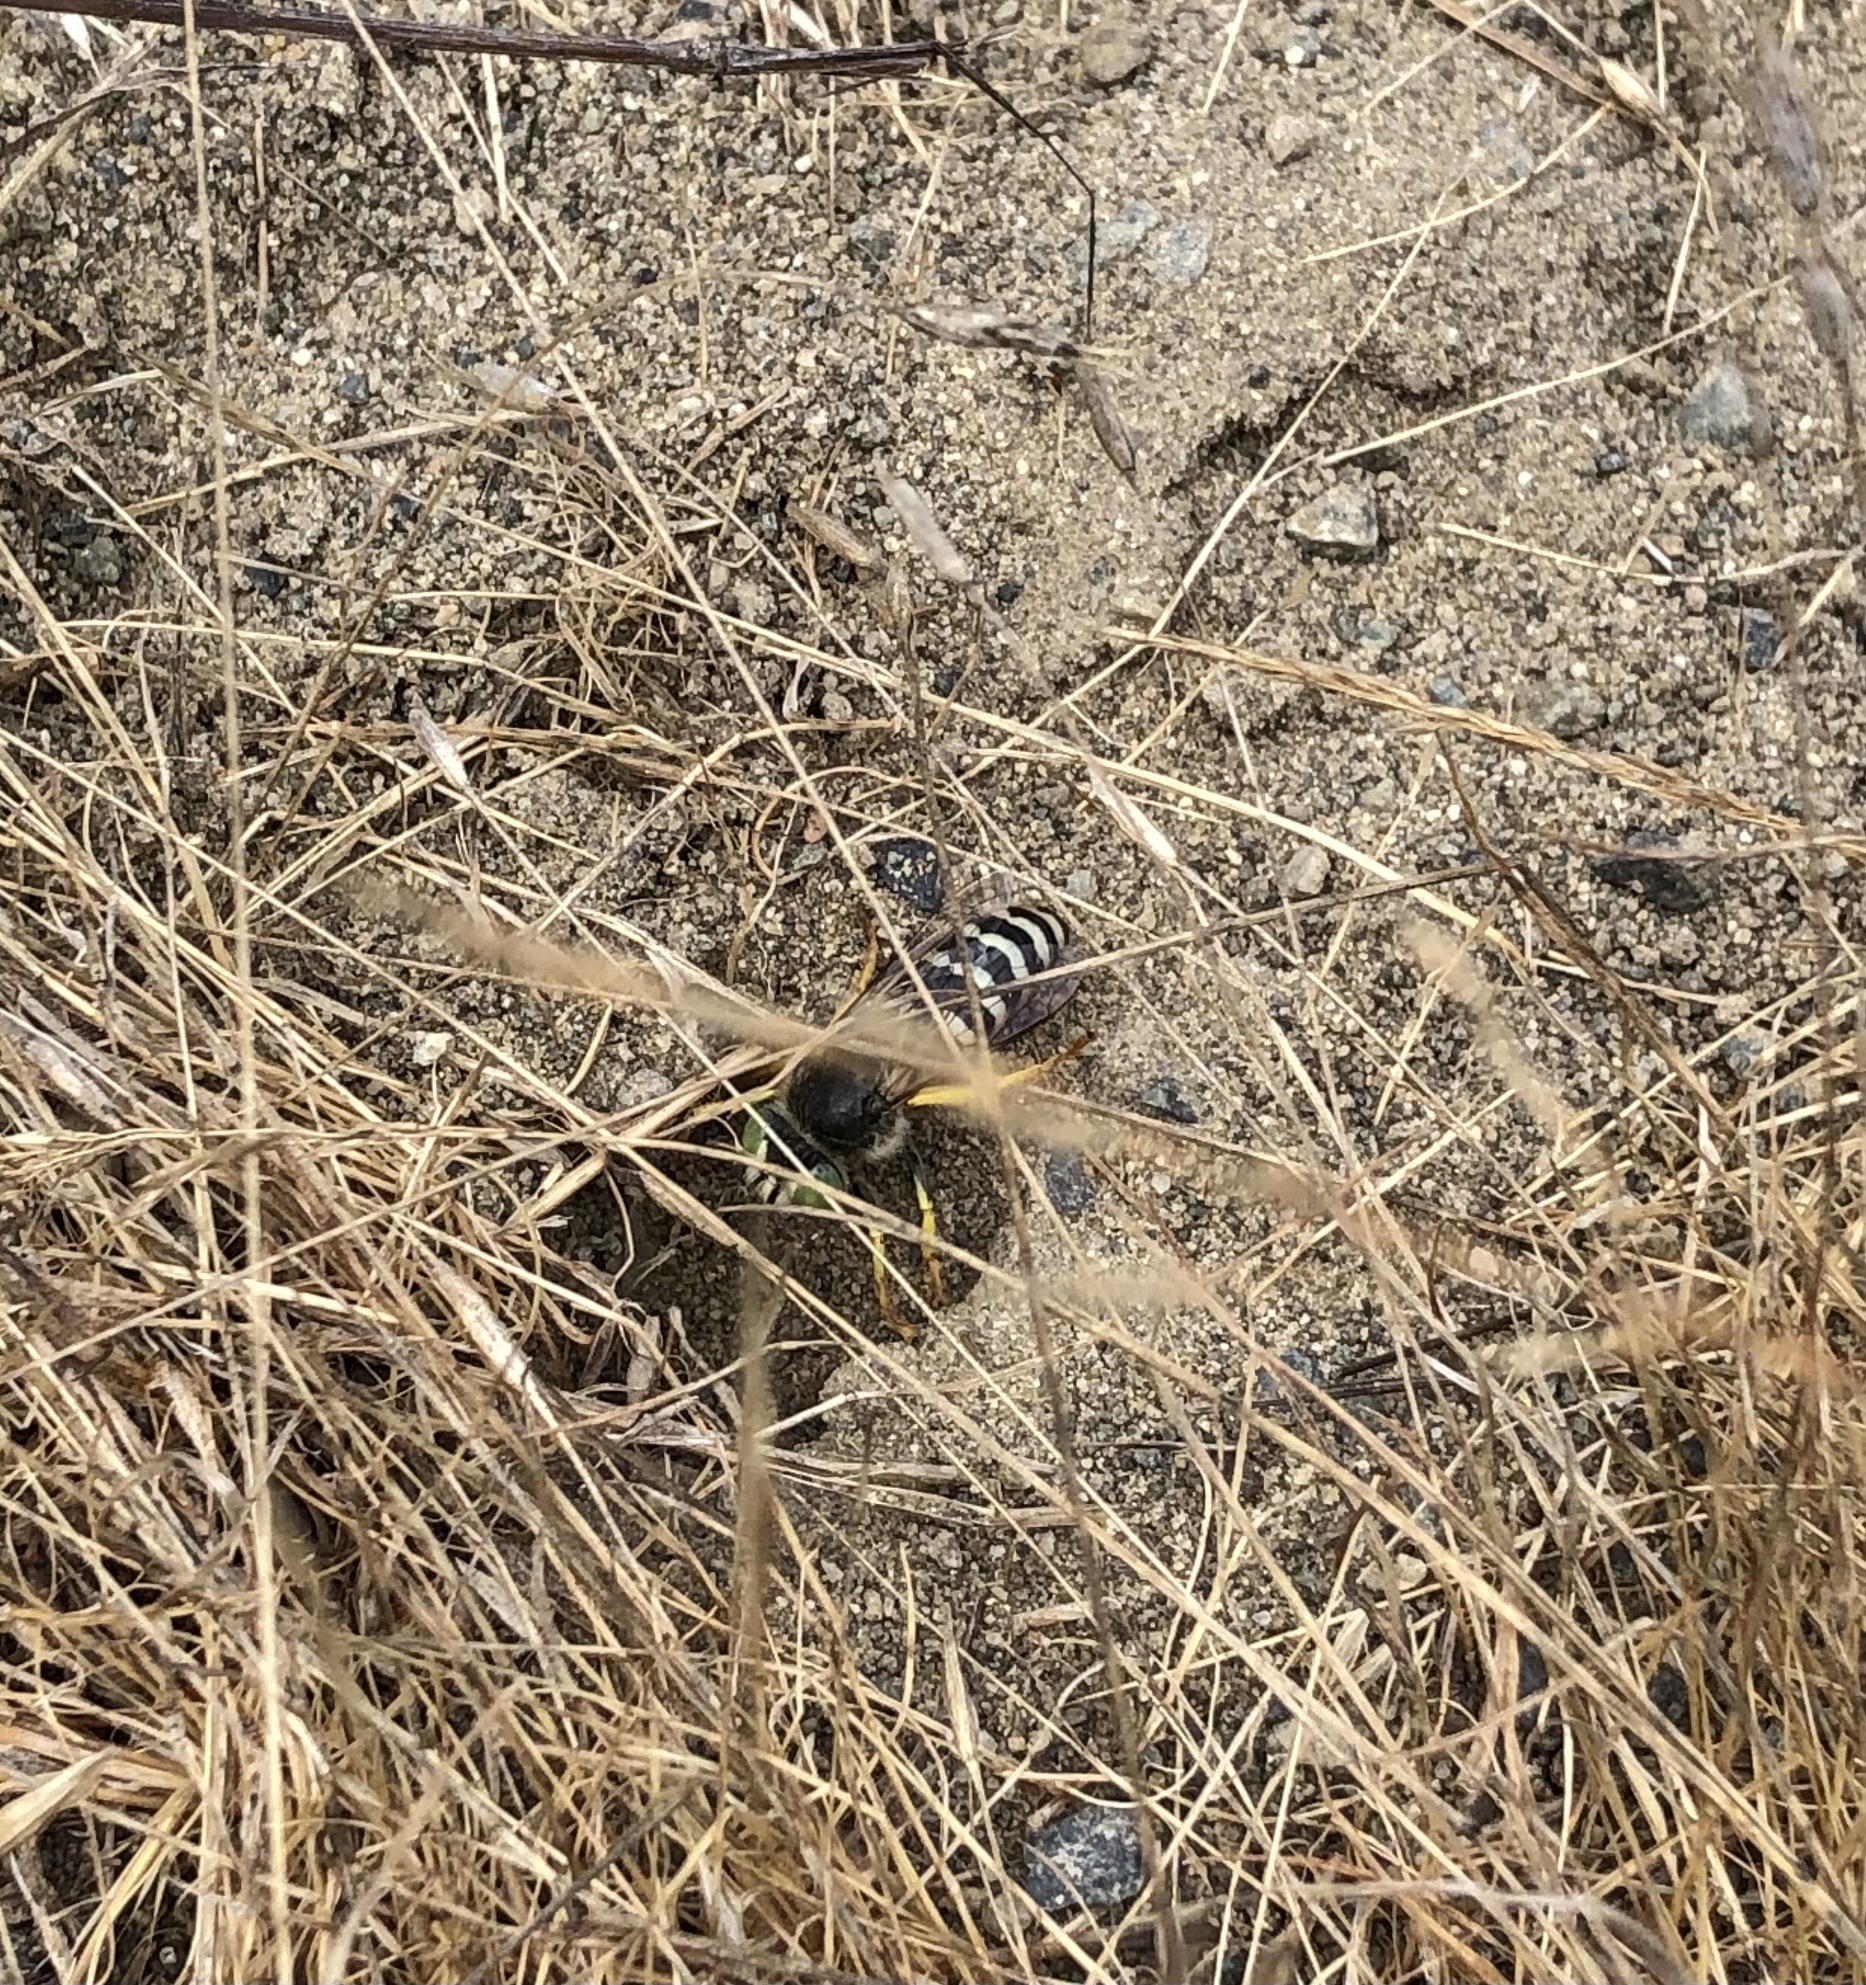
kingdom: Animalia
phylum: Arthropoda
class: Insecta
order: Hymenoptera
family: Crabronidae
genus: Bembix
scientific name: Bembix americana
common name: American sand wasp
